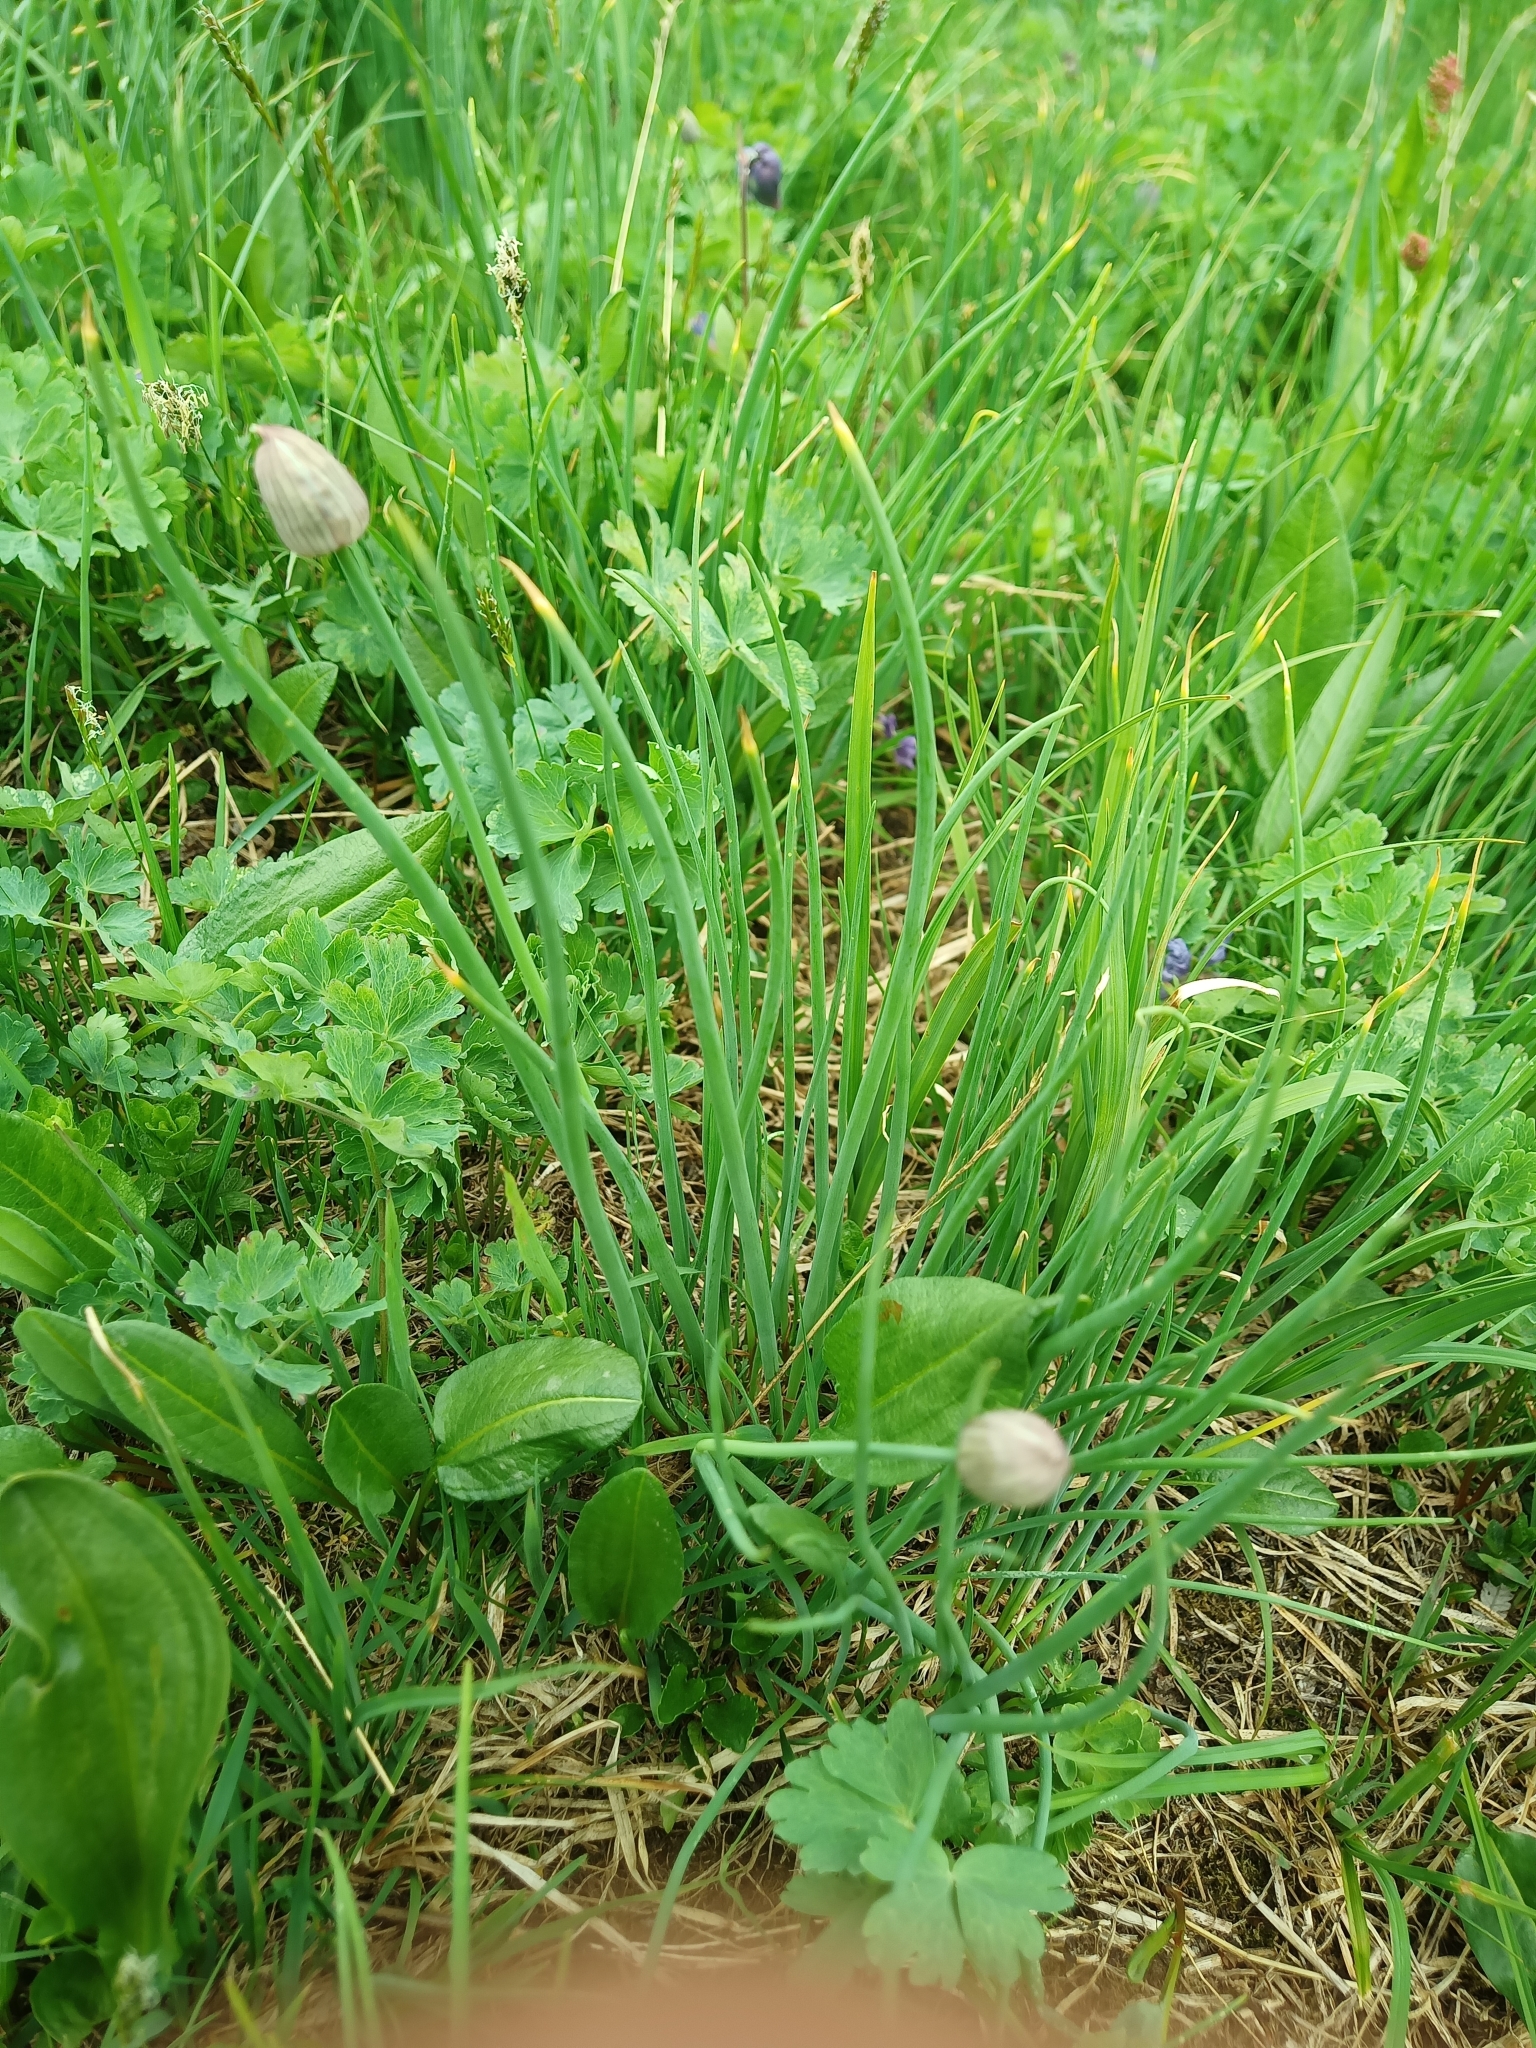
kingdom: Plantae
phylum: Tracheophyta
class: Liliopsida
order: Asparagales
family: Amaryllidaceae
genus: Allium
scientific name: Allium schoenoprasum
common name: Chives
